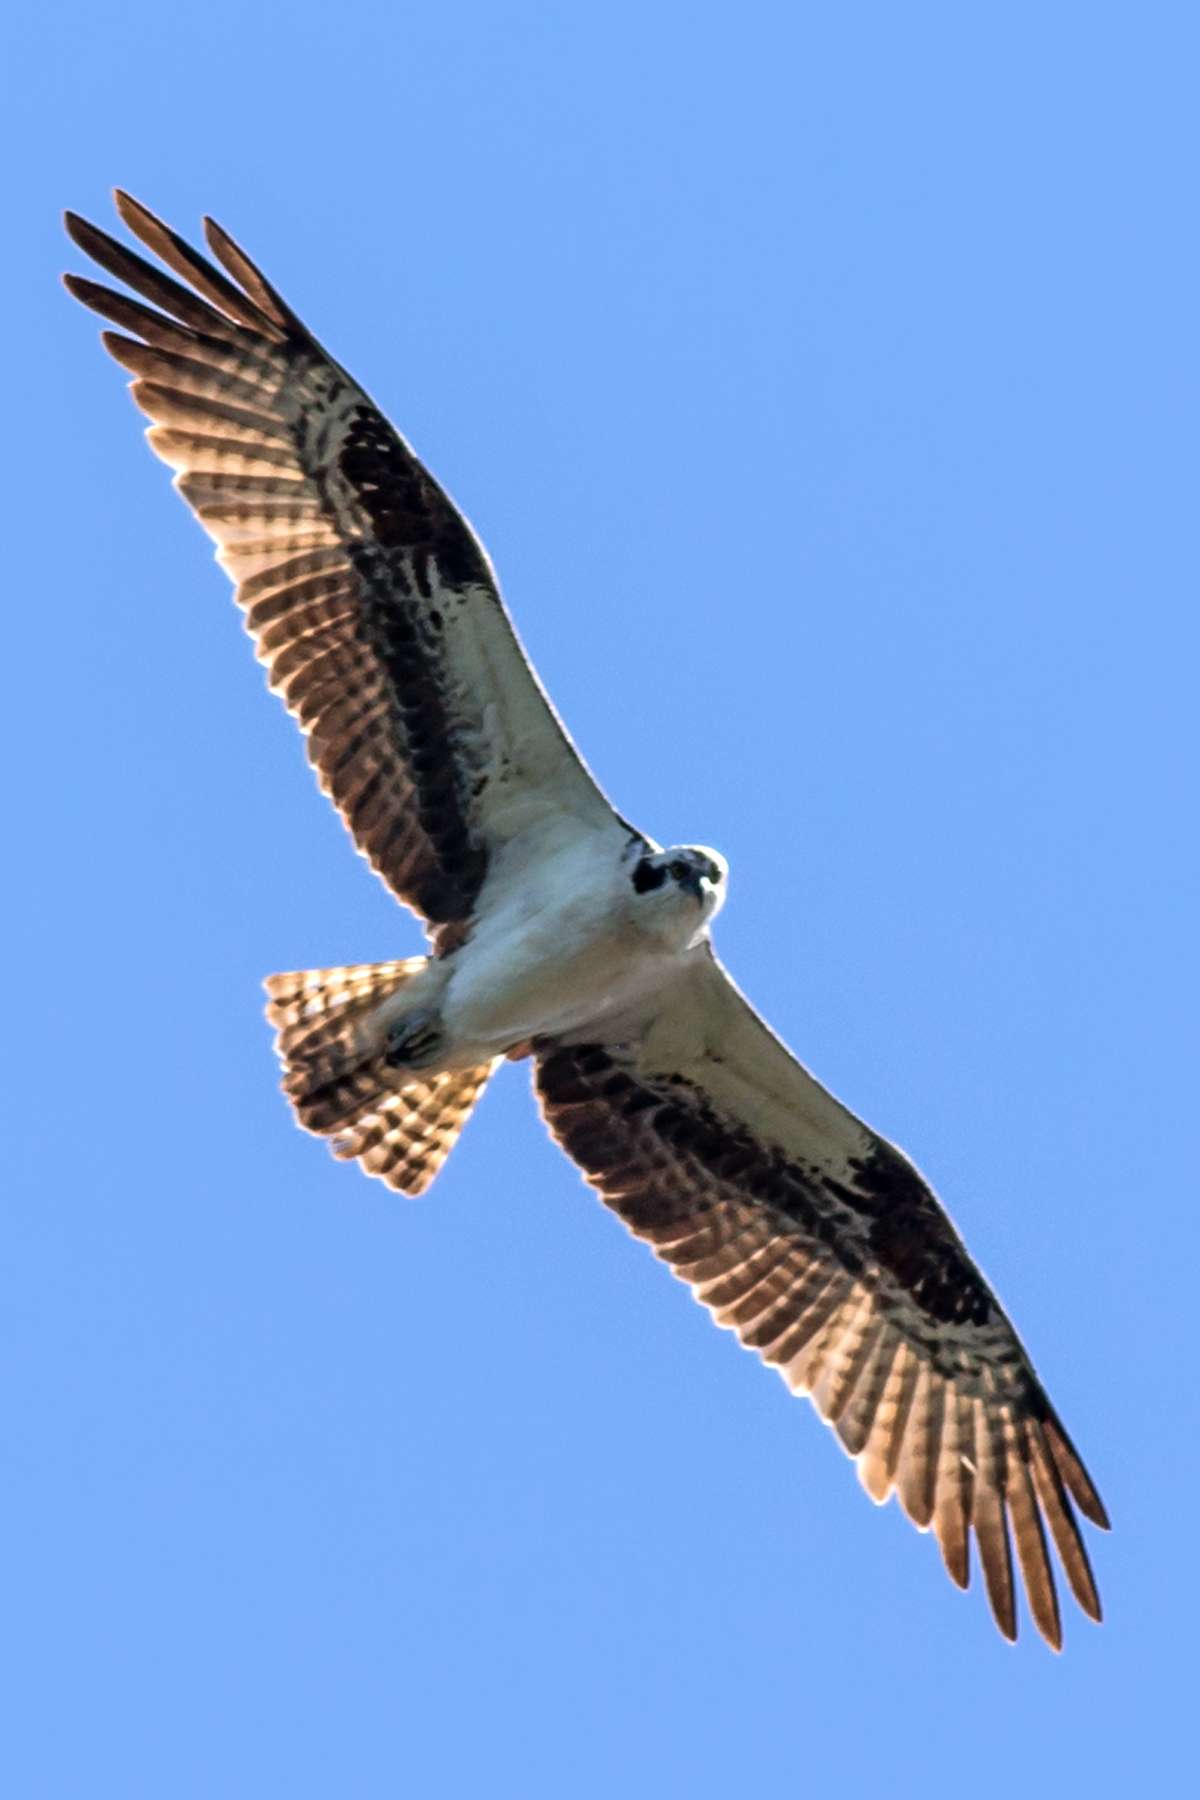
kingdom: Animalia
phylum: Chordata
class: Aves
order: Accipitriformes
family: Pandionidae
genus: Pandion
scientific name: Pandion haliaetus
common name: Osprey
